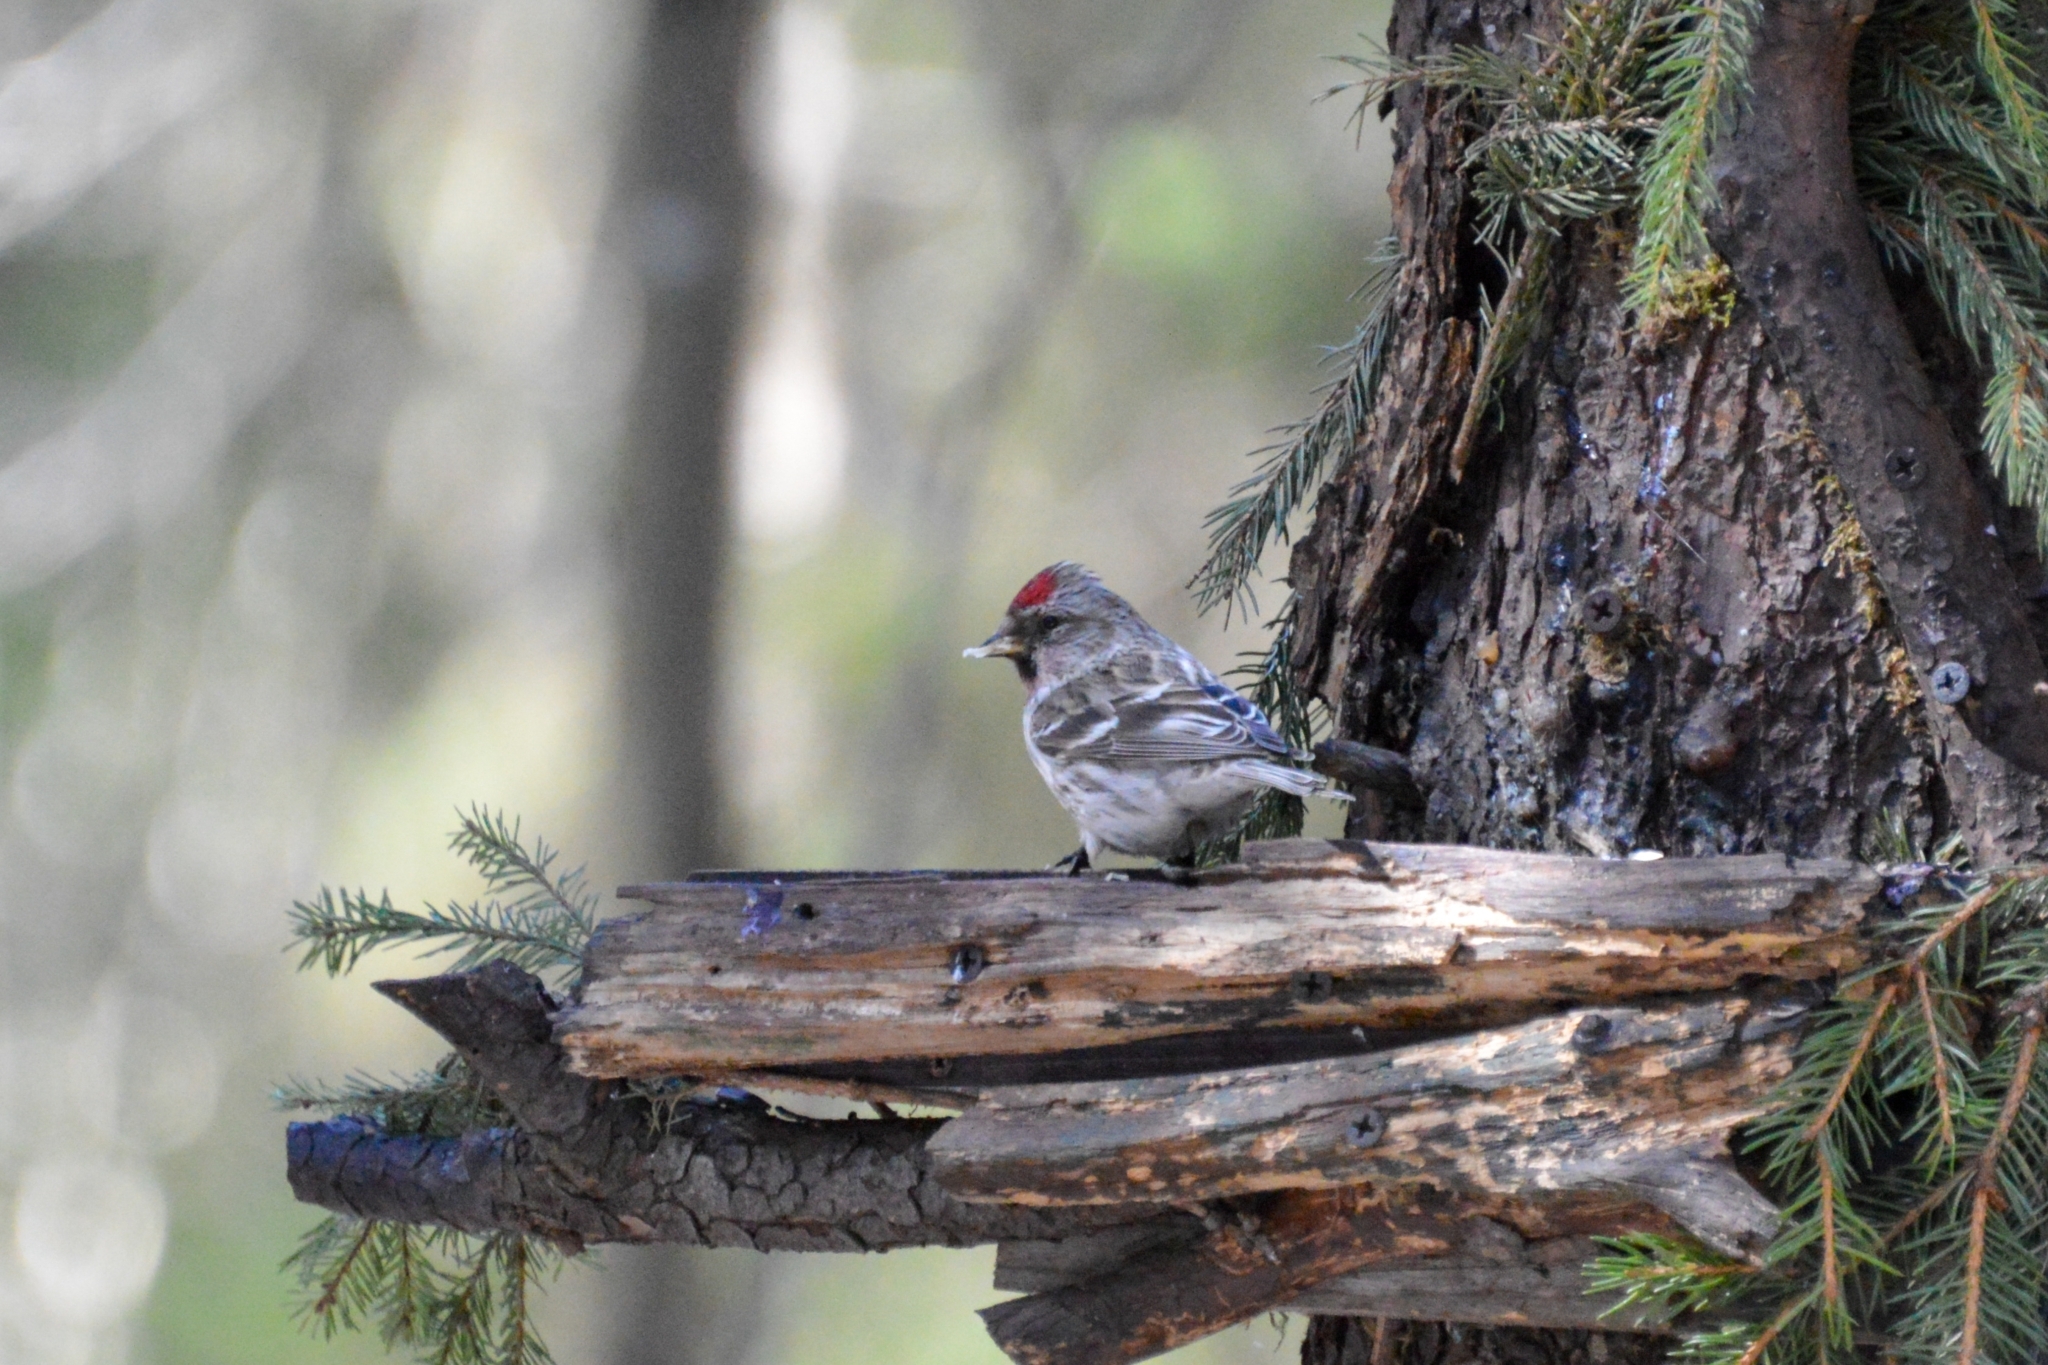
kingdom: Animalia
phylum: Chordata
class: Aves
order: Passeriformes
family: Fringillidae
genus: Acanthis
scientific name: Acanthis flammea
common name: Common redpoll
